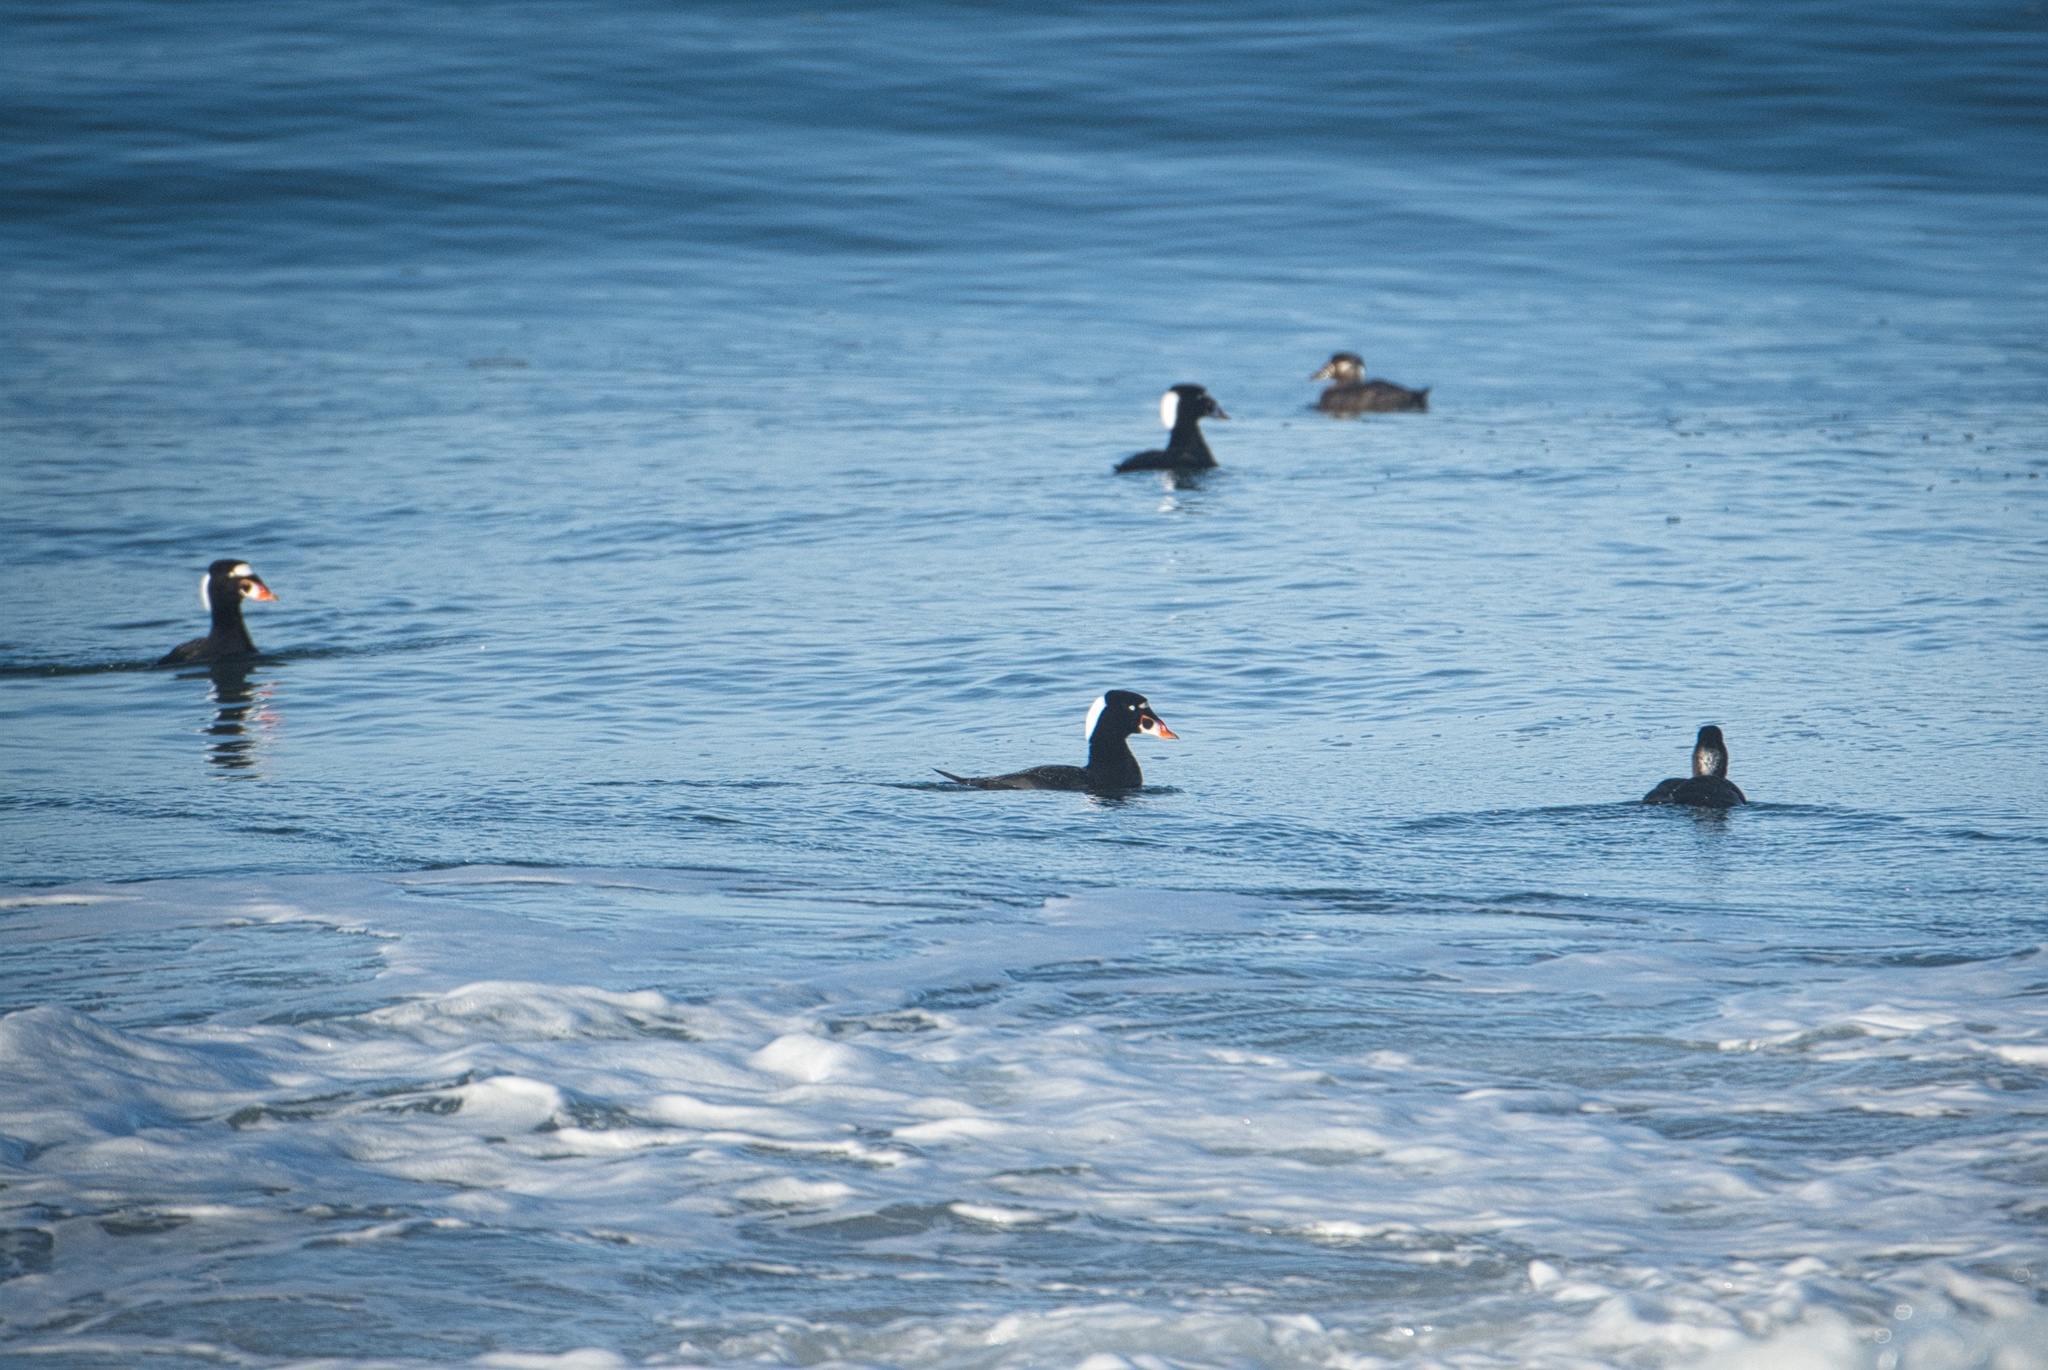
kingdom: Animalia
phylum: Chordata
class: Aves
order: Anseriformes
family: Anatidae
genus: Melanitta
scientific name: Melanitta perspicillata
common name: Surf scoter
